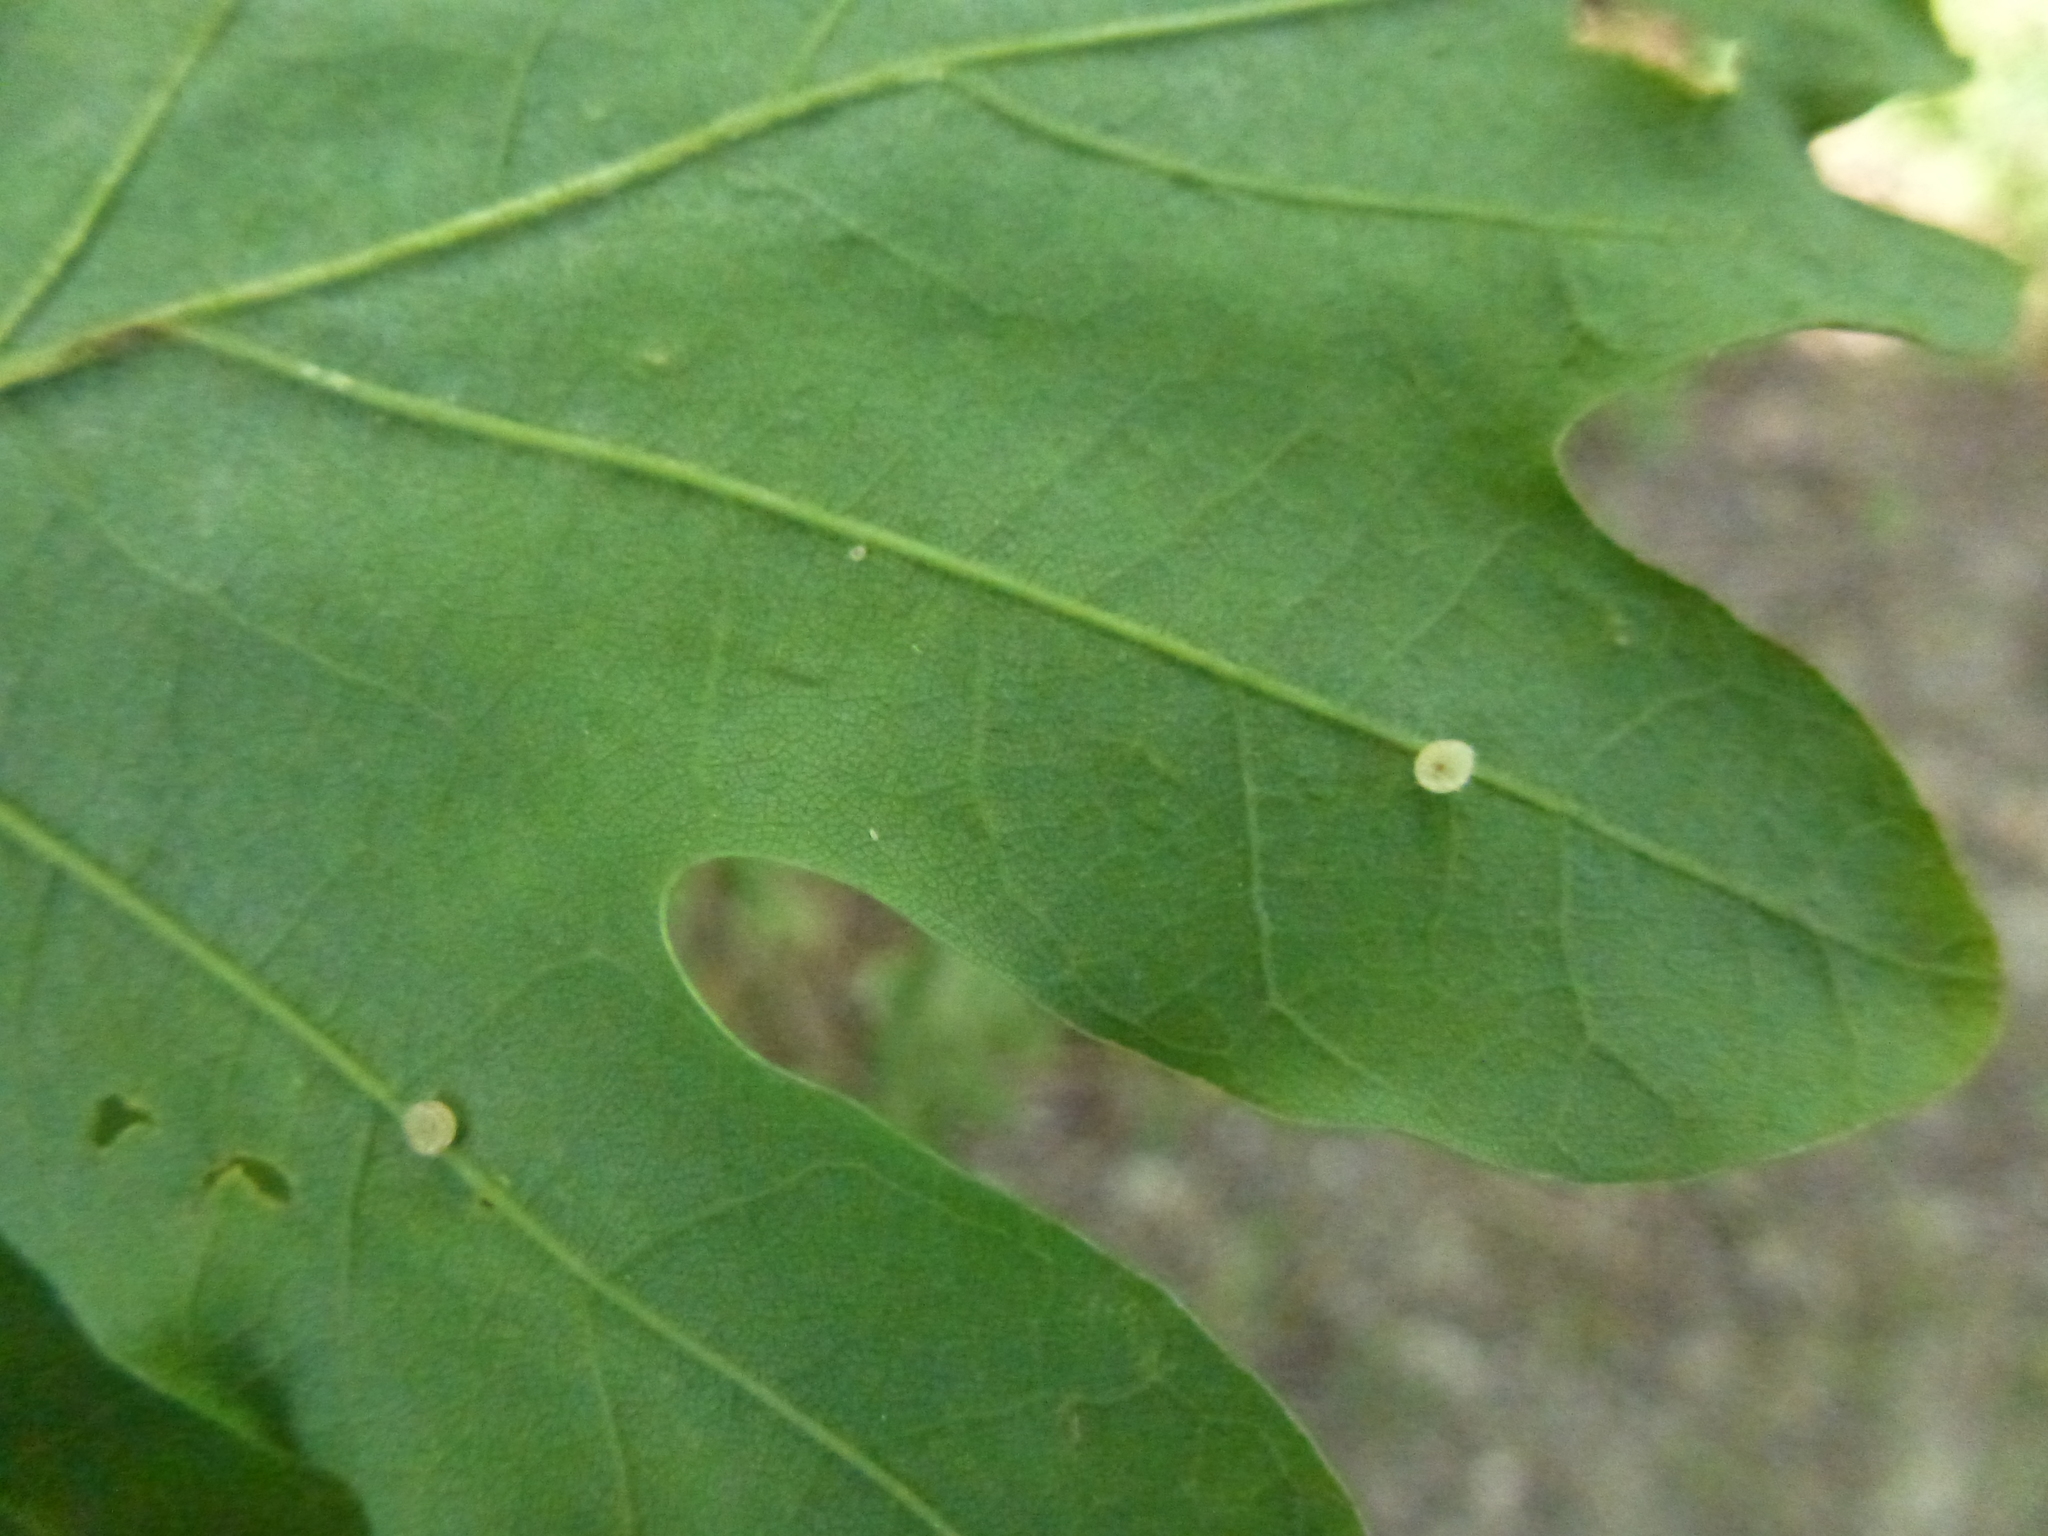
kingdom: Animalia
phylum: Arthropoda
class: Insecta
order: Hymenoptera
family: Cynipidae
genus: Neuroterus
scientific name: Neuroterus albipes
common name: Smooth spangle gall
